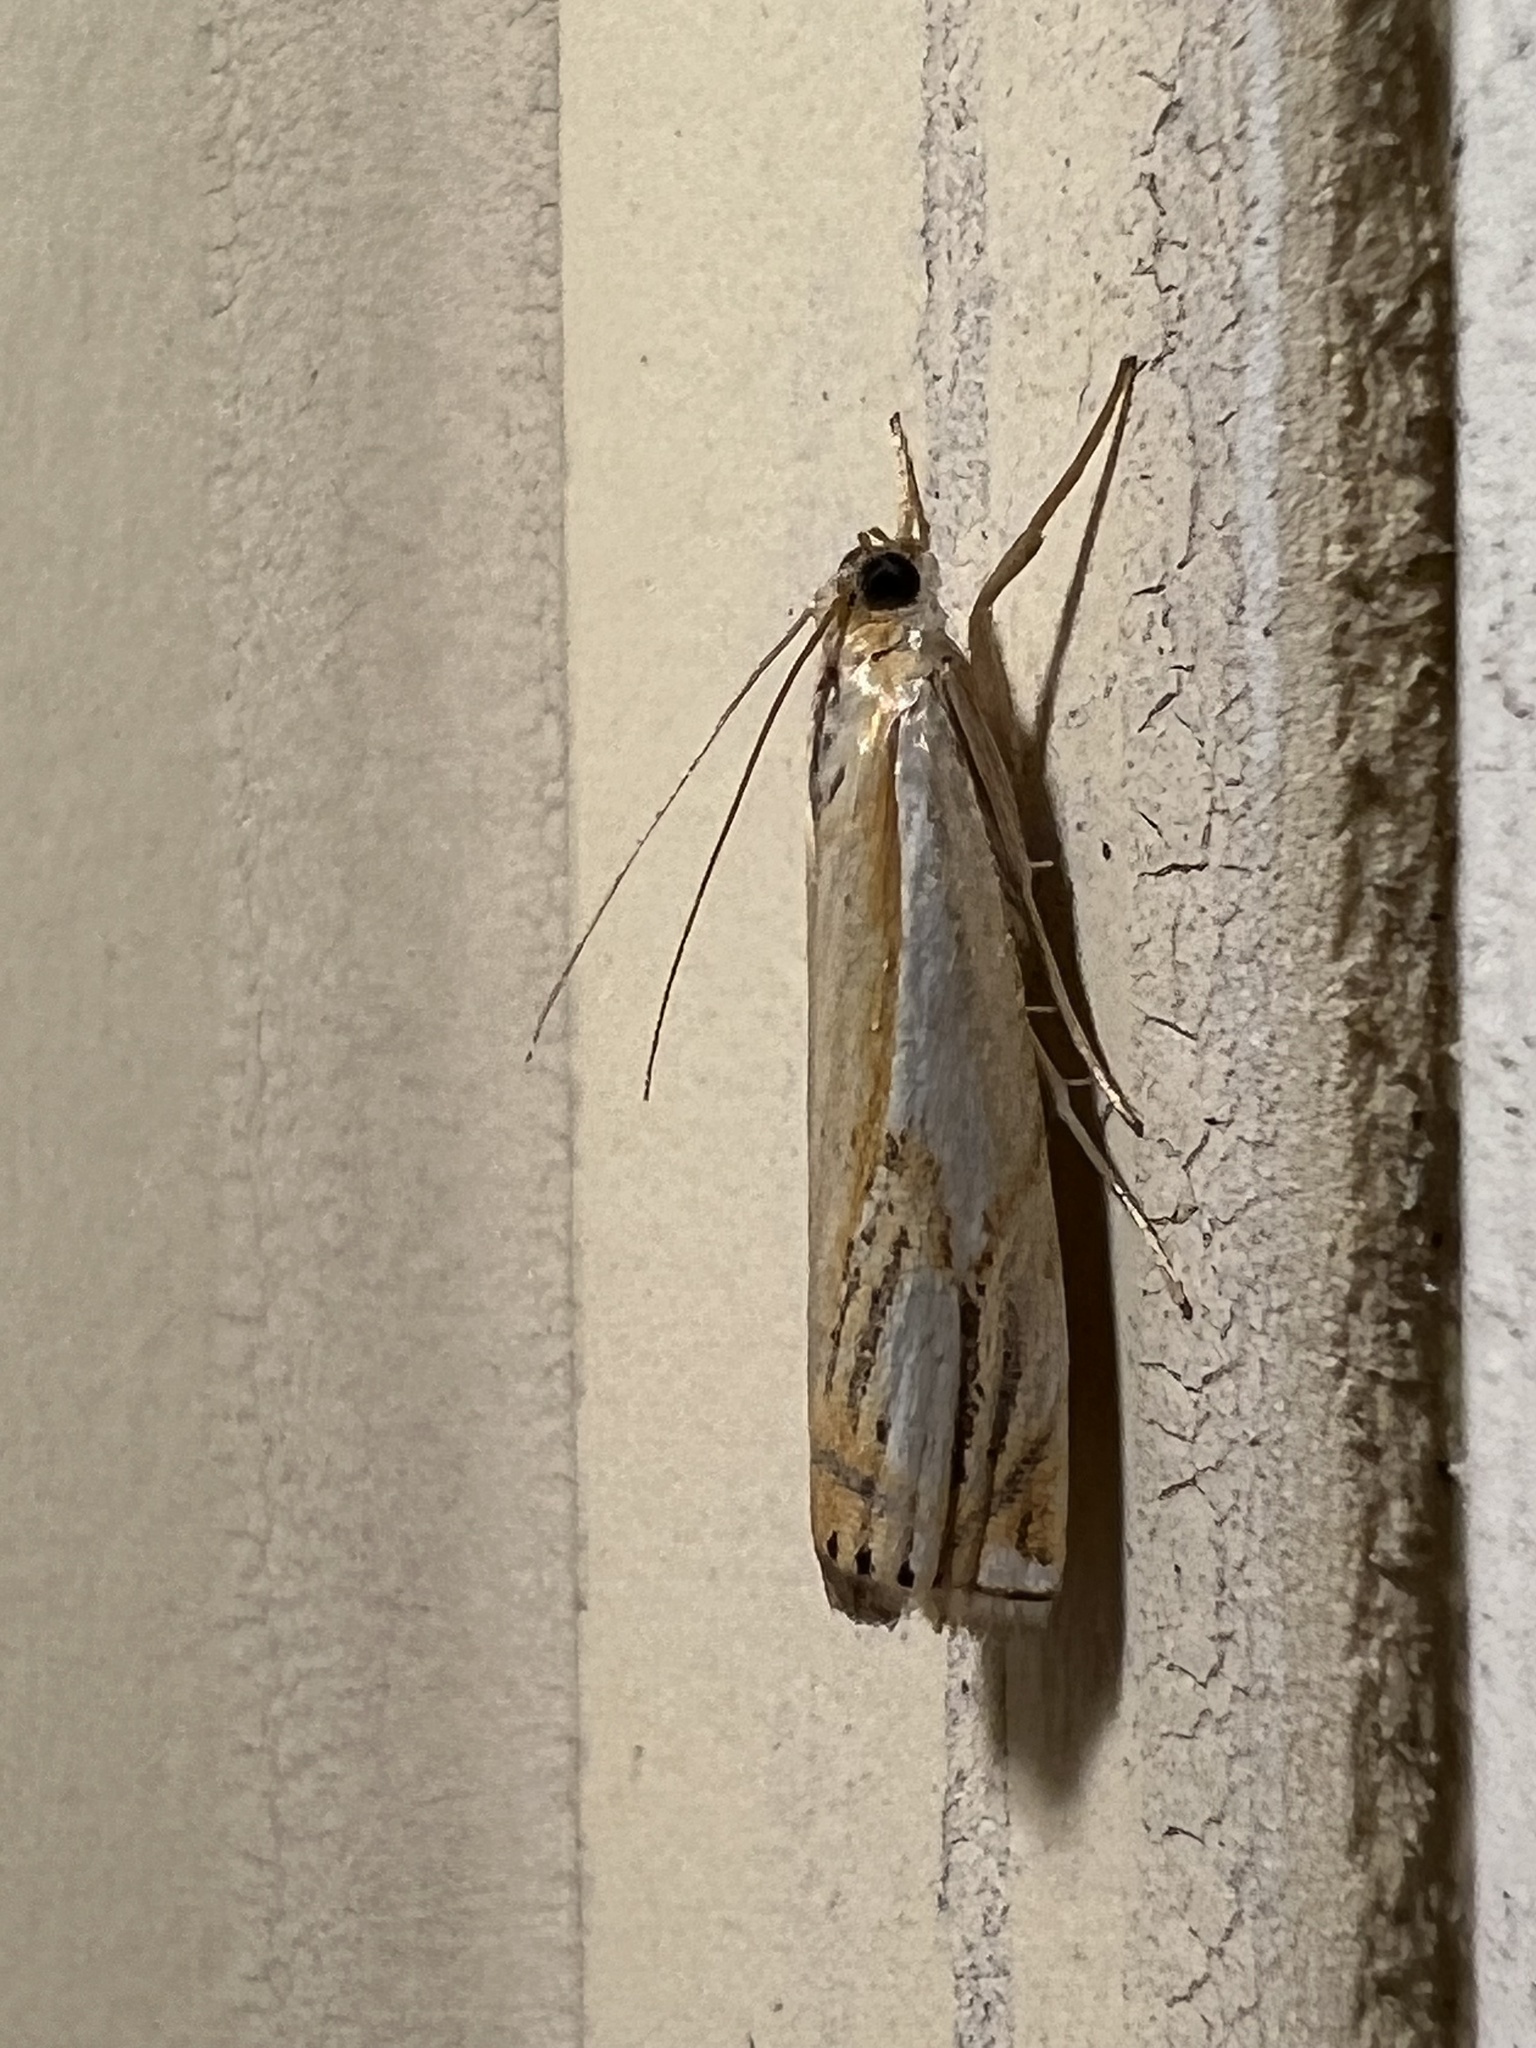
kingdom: Animalia
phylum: Arthropoda
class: Insecta
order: Lepidoptera
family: Crambidae
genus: Crambus
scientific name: Crambus agitatellus
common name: Double-banded grass-veneer
